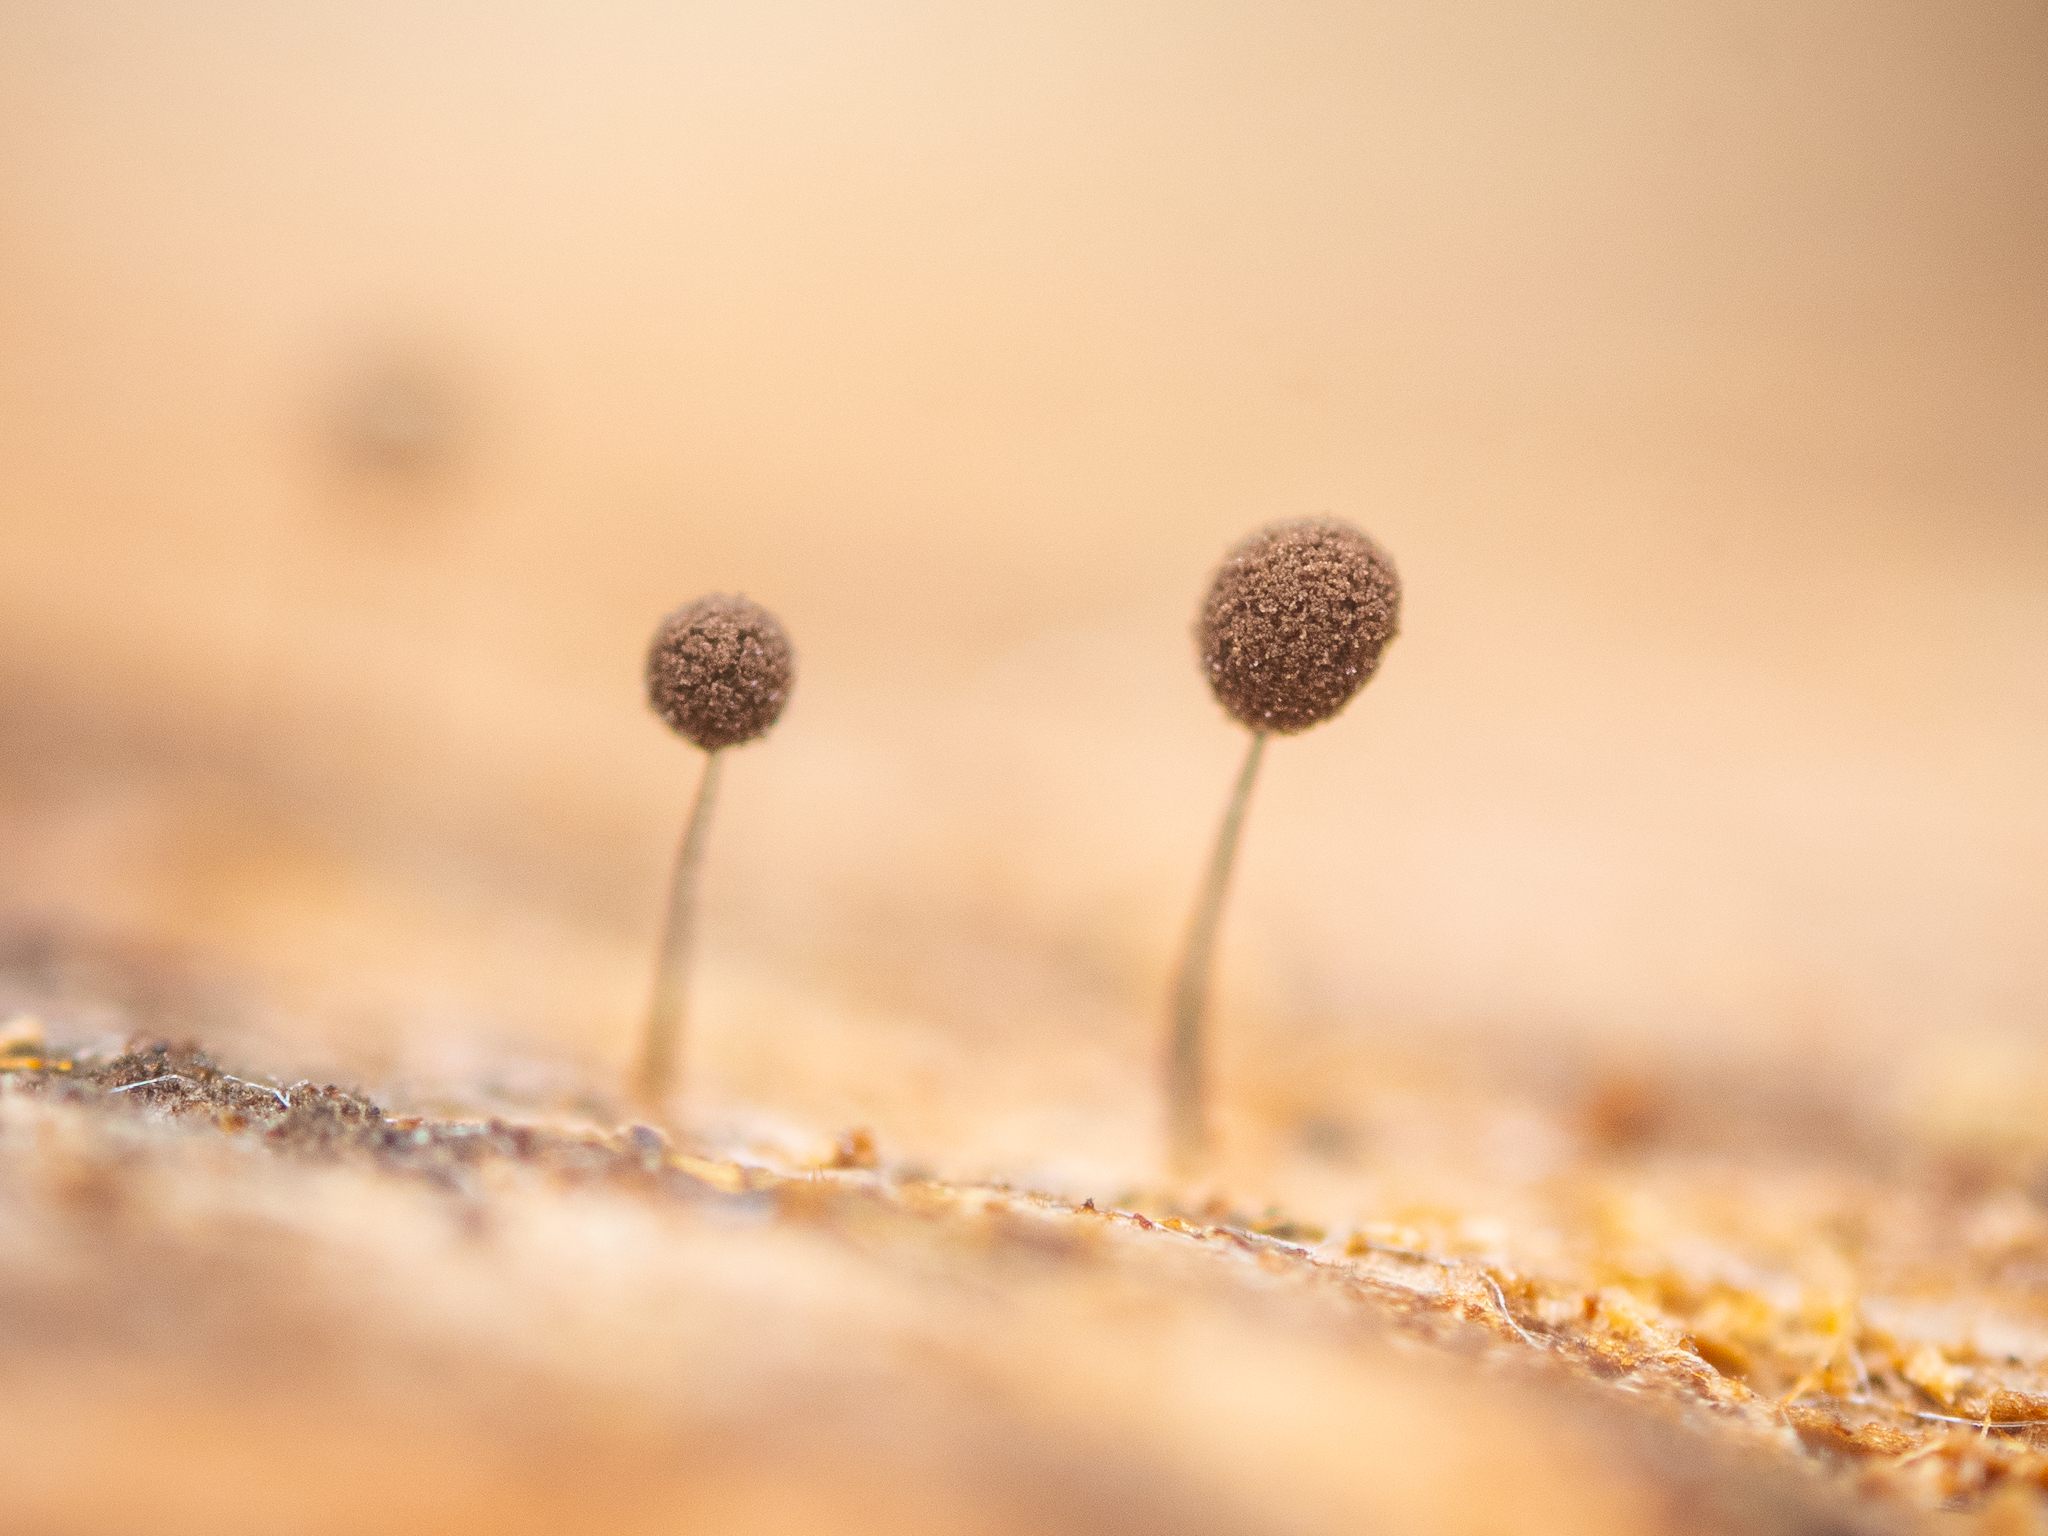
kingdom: Protozoa
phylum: Mycetozoa
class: Myxomycetes
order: Stemonitidales
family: Stemonitidaceae
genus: Comatricha
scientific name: Comatricha nigra
